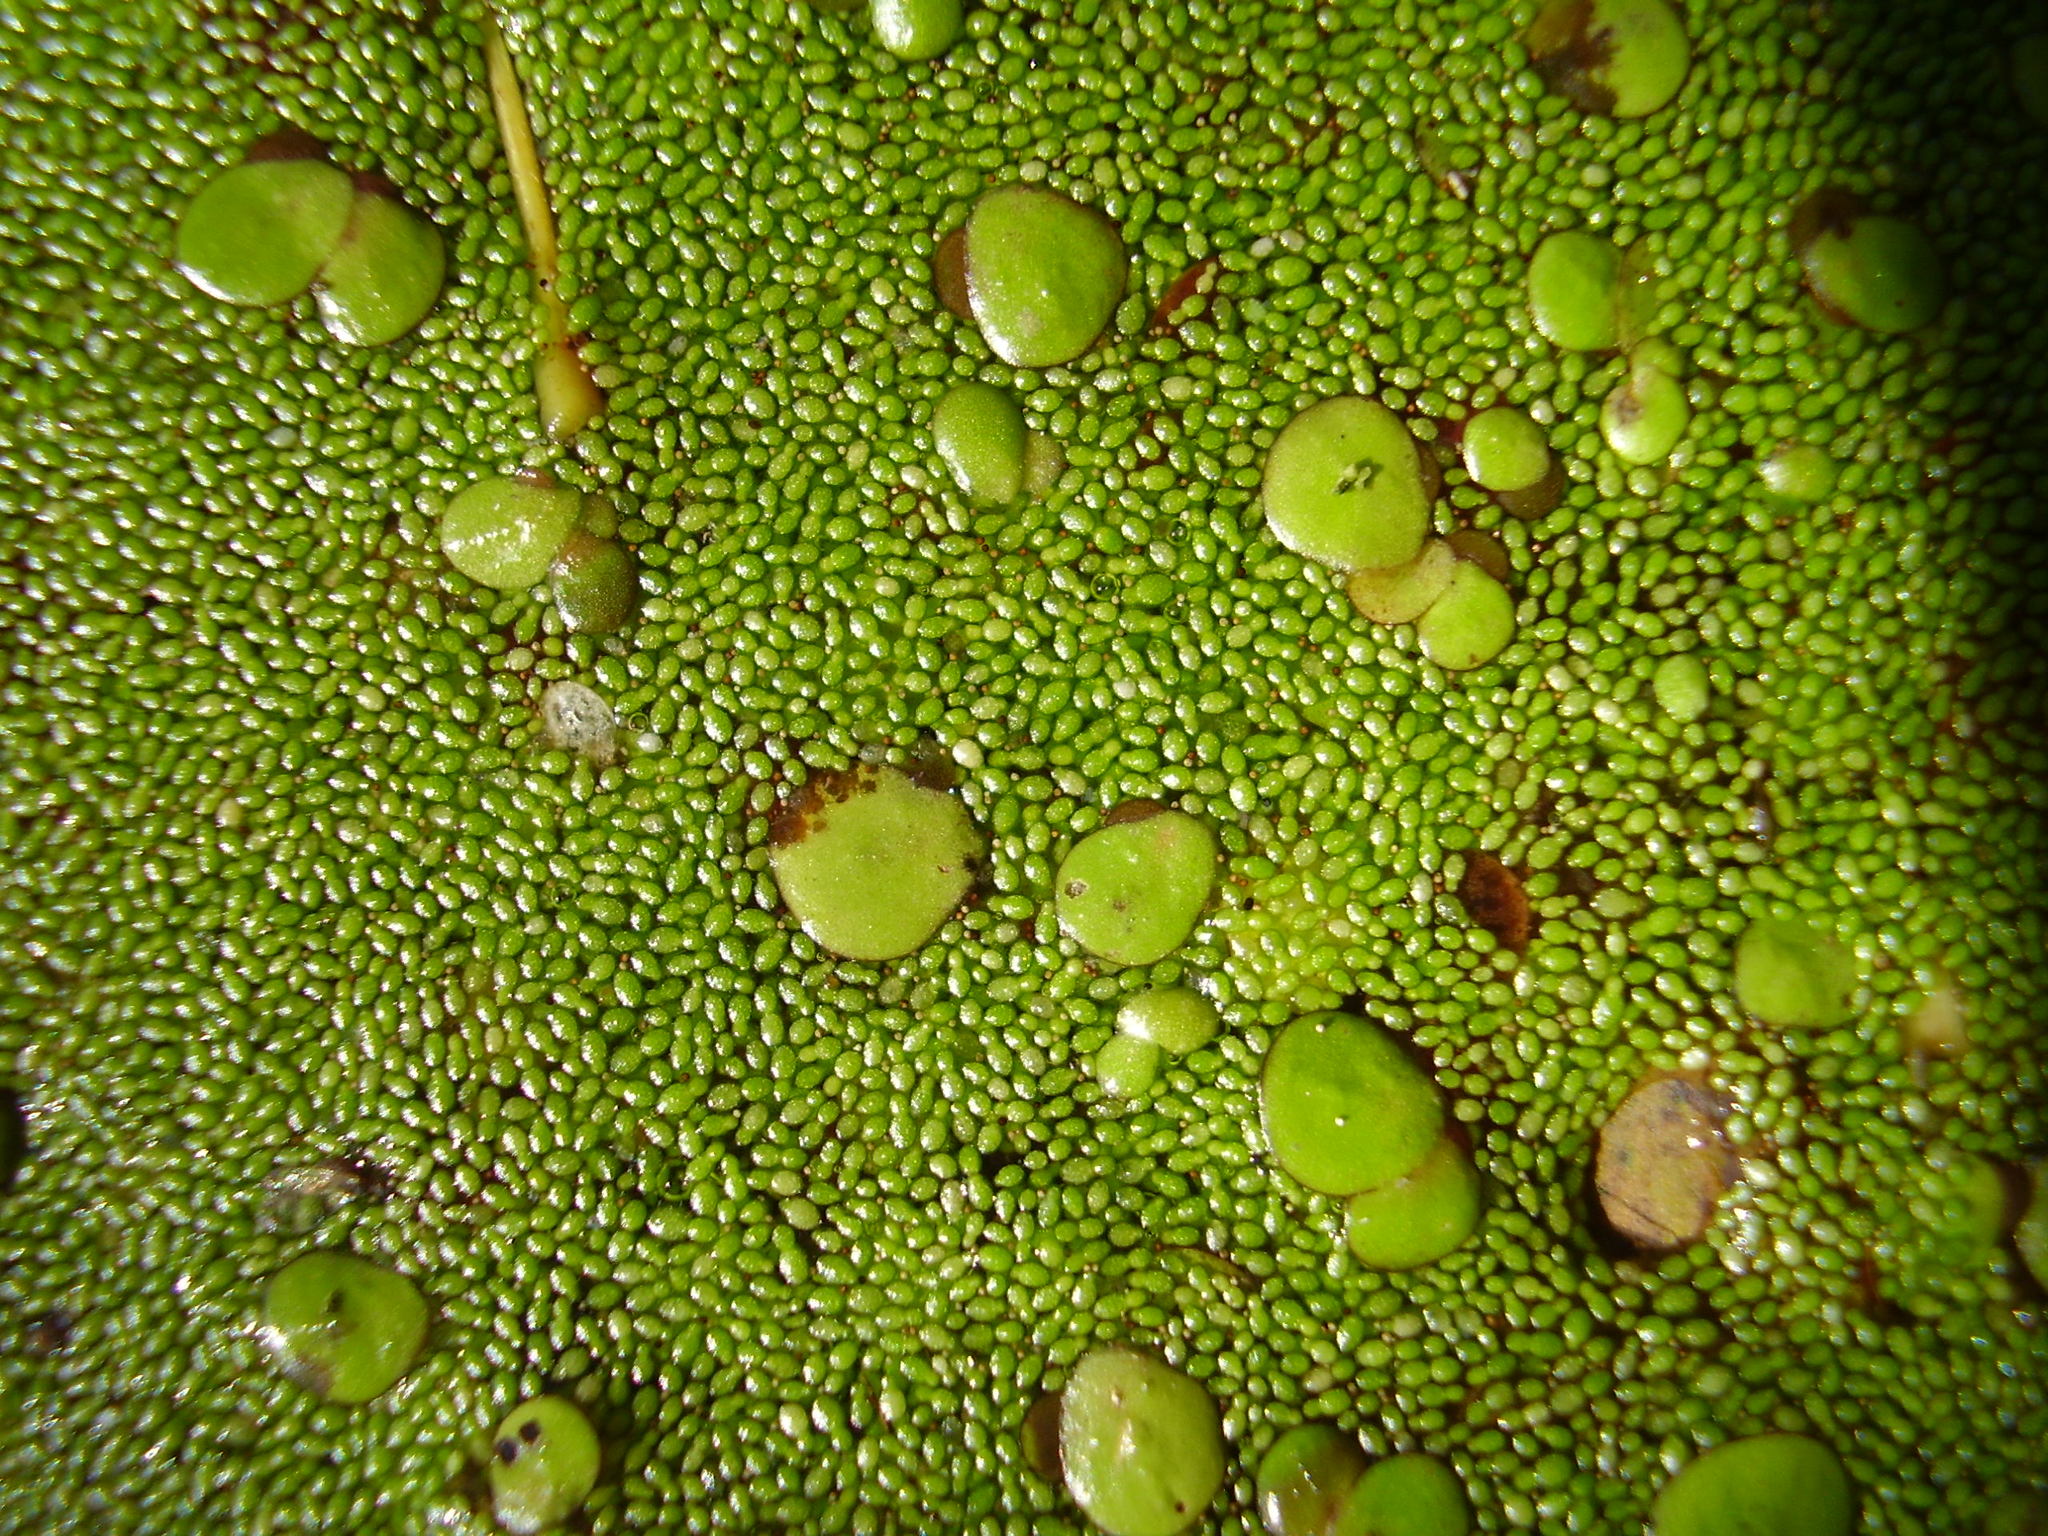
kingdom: Plantae
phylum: Tracheophyta
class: Liliopsida
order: Alismatales
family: Araceae
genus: Wolffia
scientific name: Wolffia arrhiza
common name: Rootless duckweed
